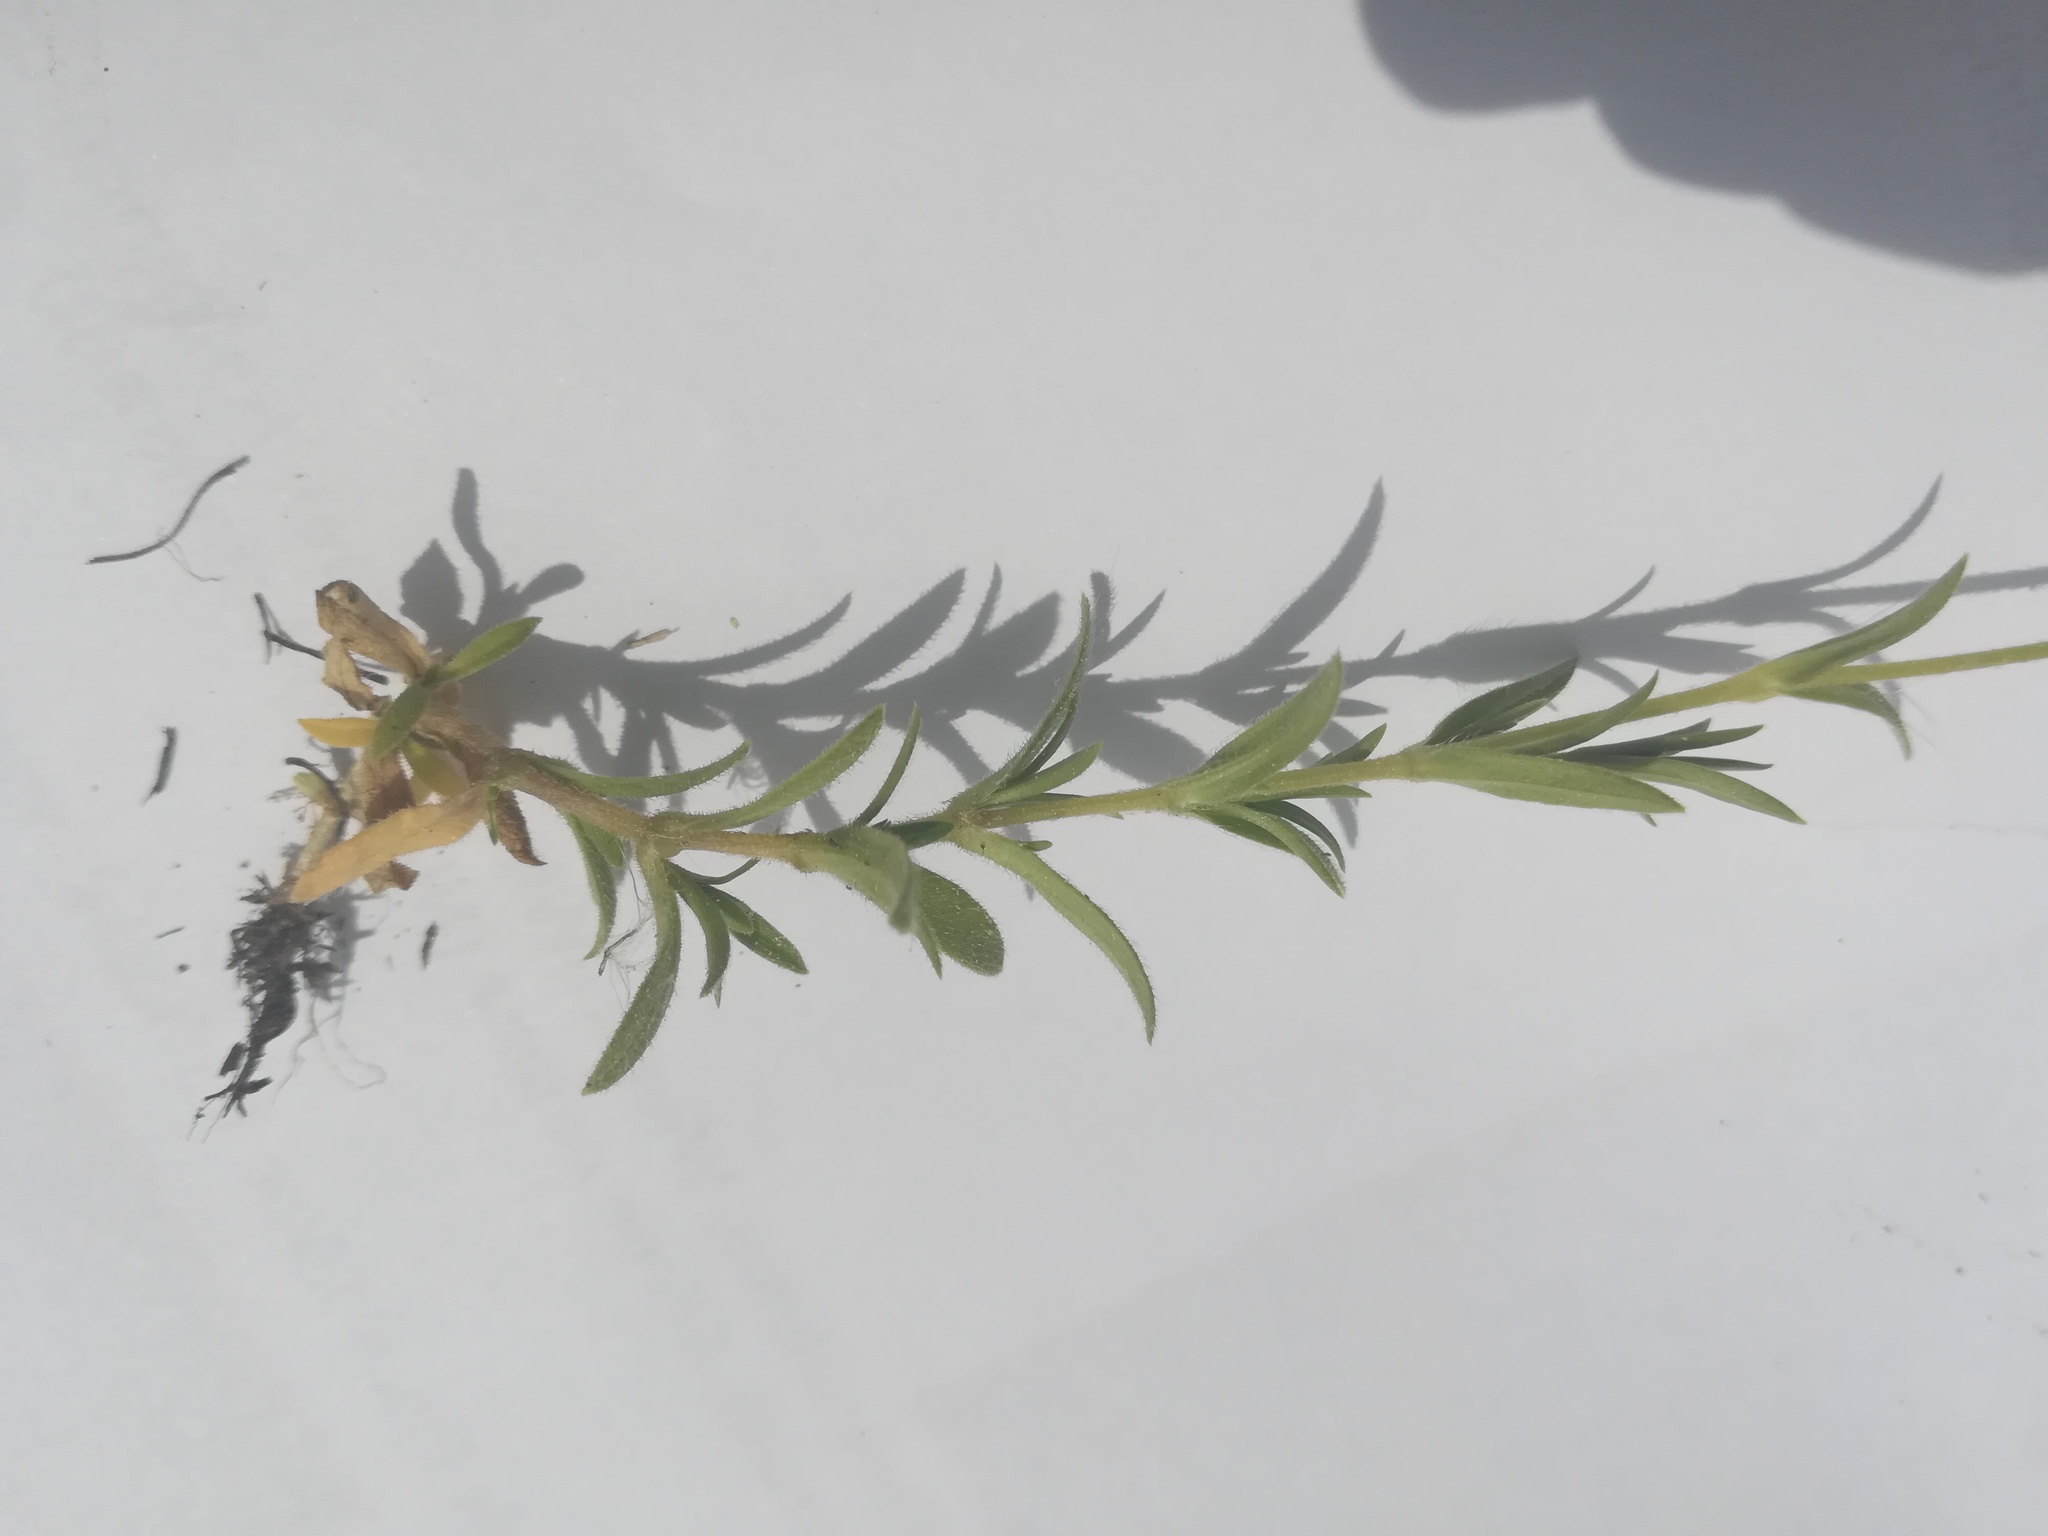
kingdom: Plantae
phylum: Tracheophyta
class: Magnoliopsida
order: Caryophyllales
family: Caryophyllaceae
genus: Cerastium
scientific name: Cerastium arvense
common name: Field mouse-ear
